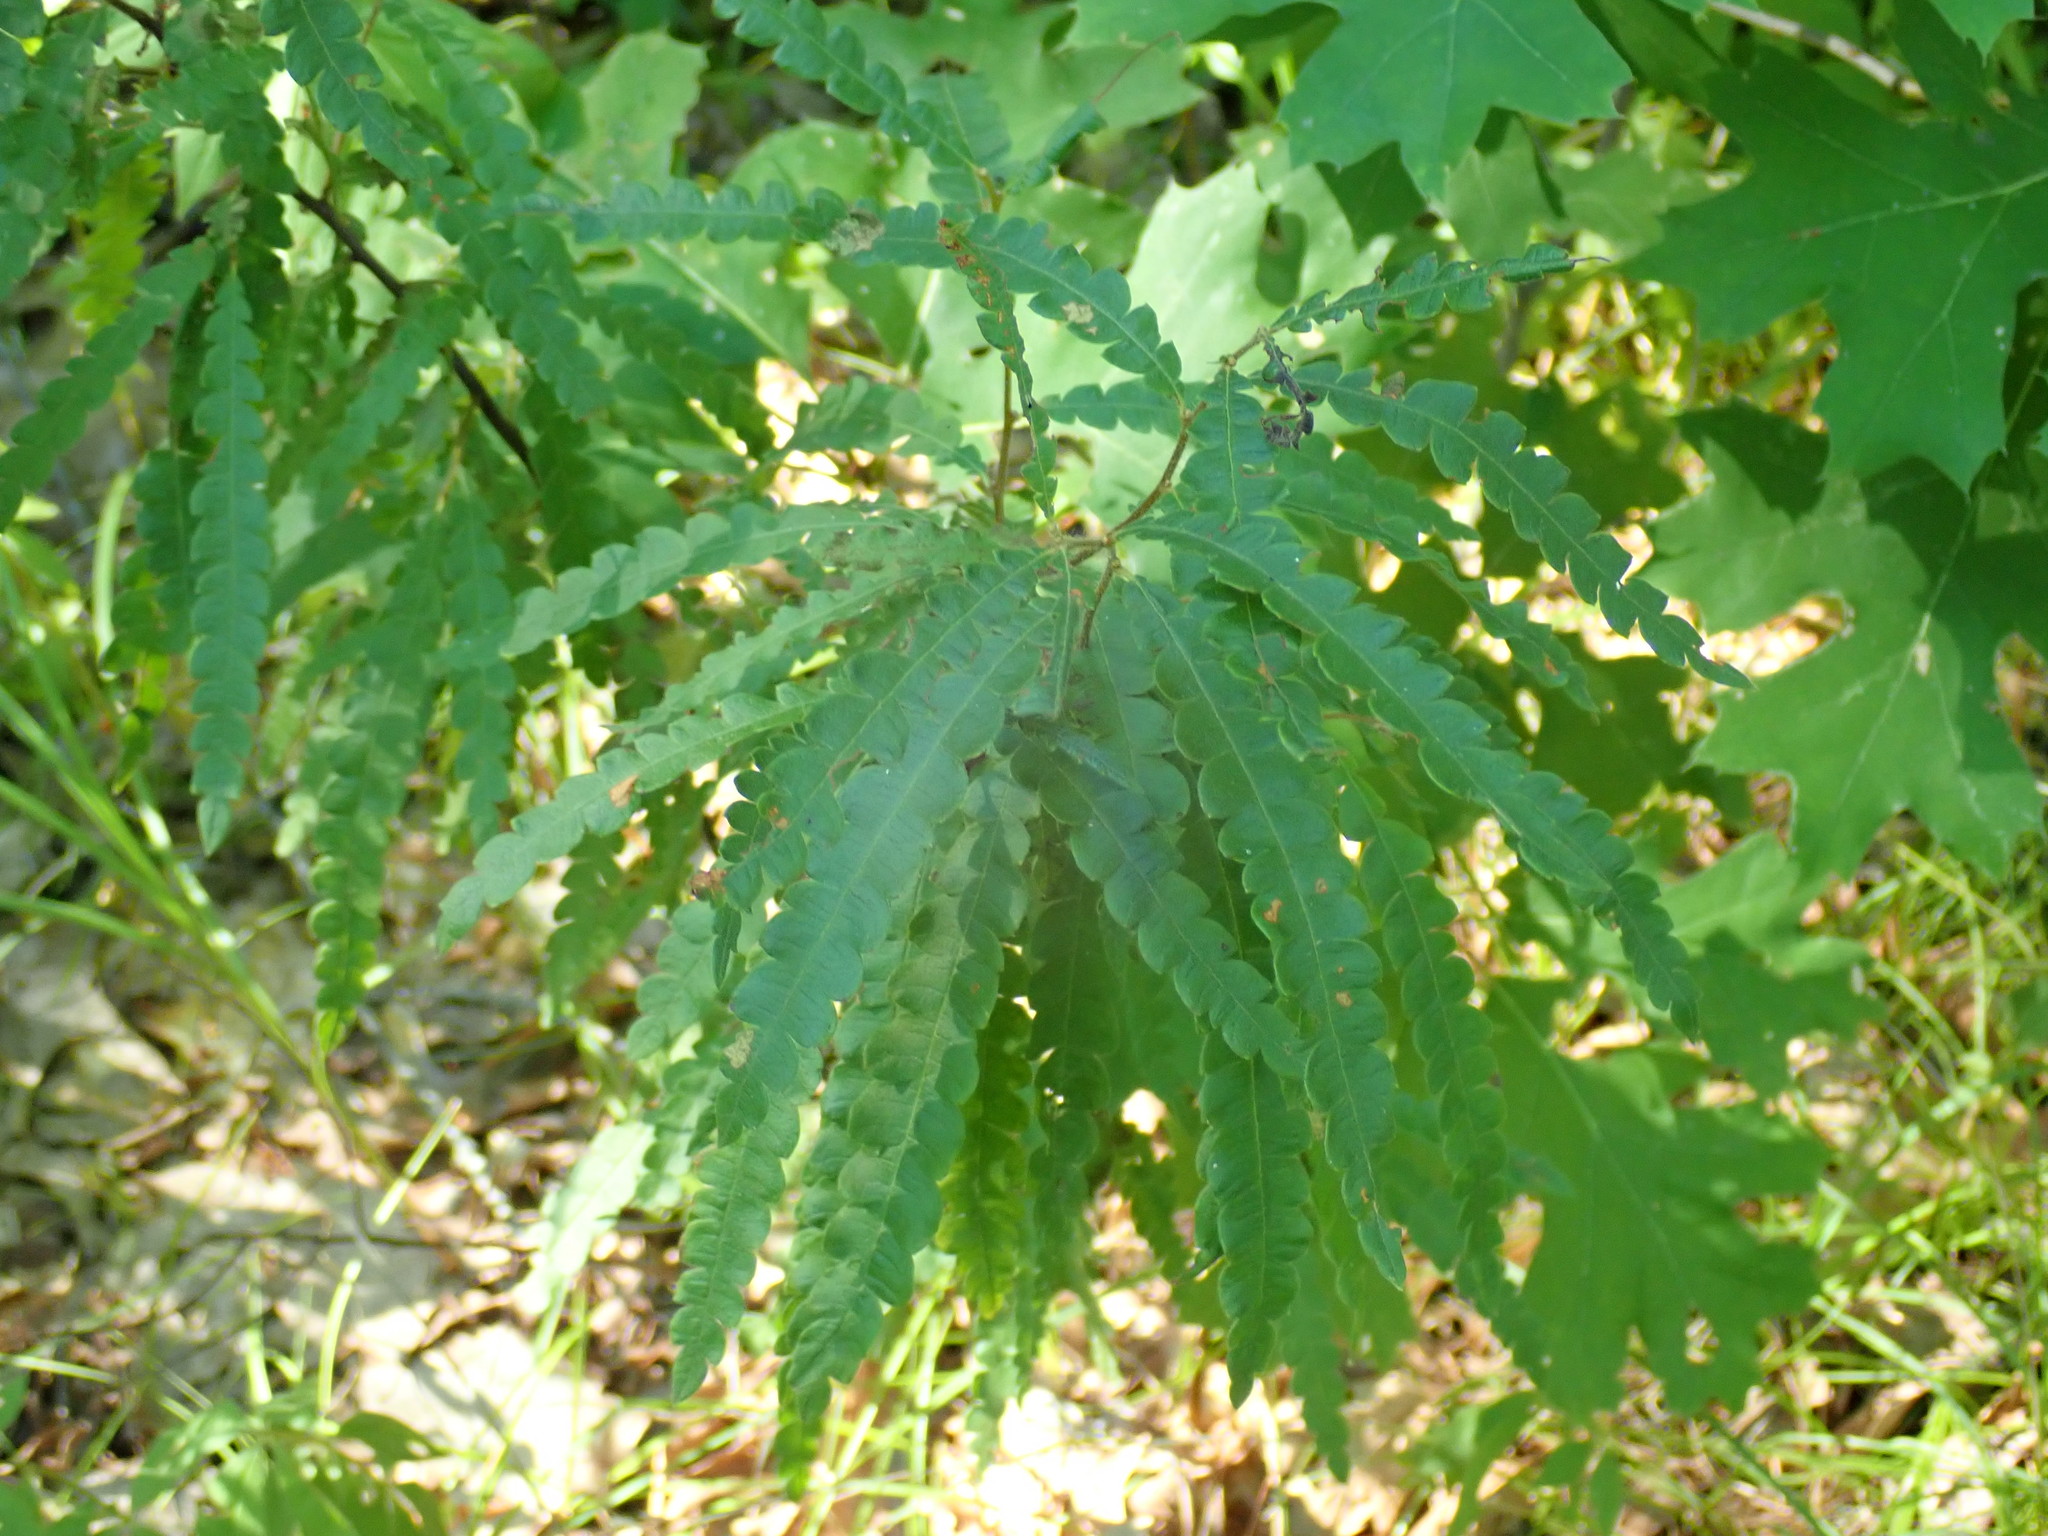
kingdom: Plantae
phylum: Tracheophyta
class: Magnoliopsida
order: Fagales
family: Myricaceae
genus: Comptonia
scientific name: Comptonia peregrina
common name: Sweet-fern
